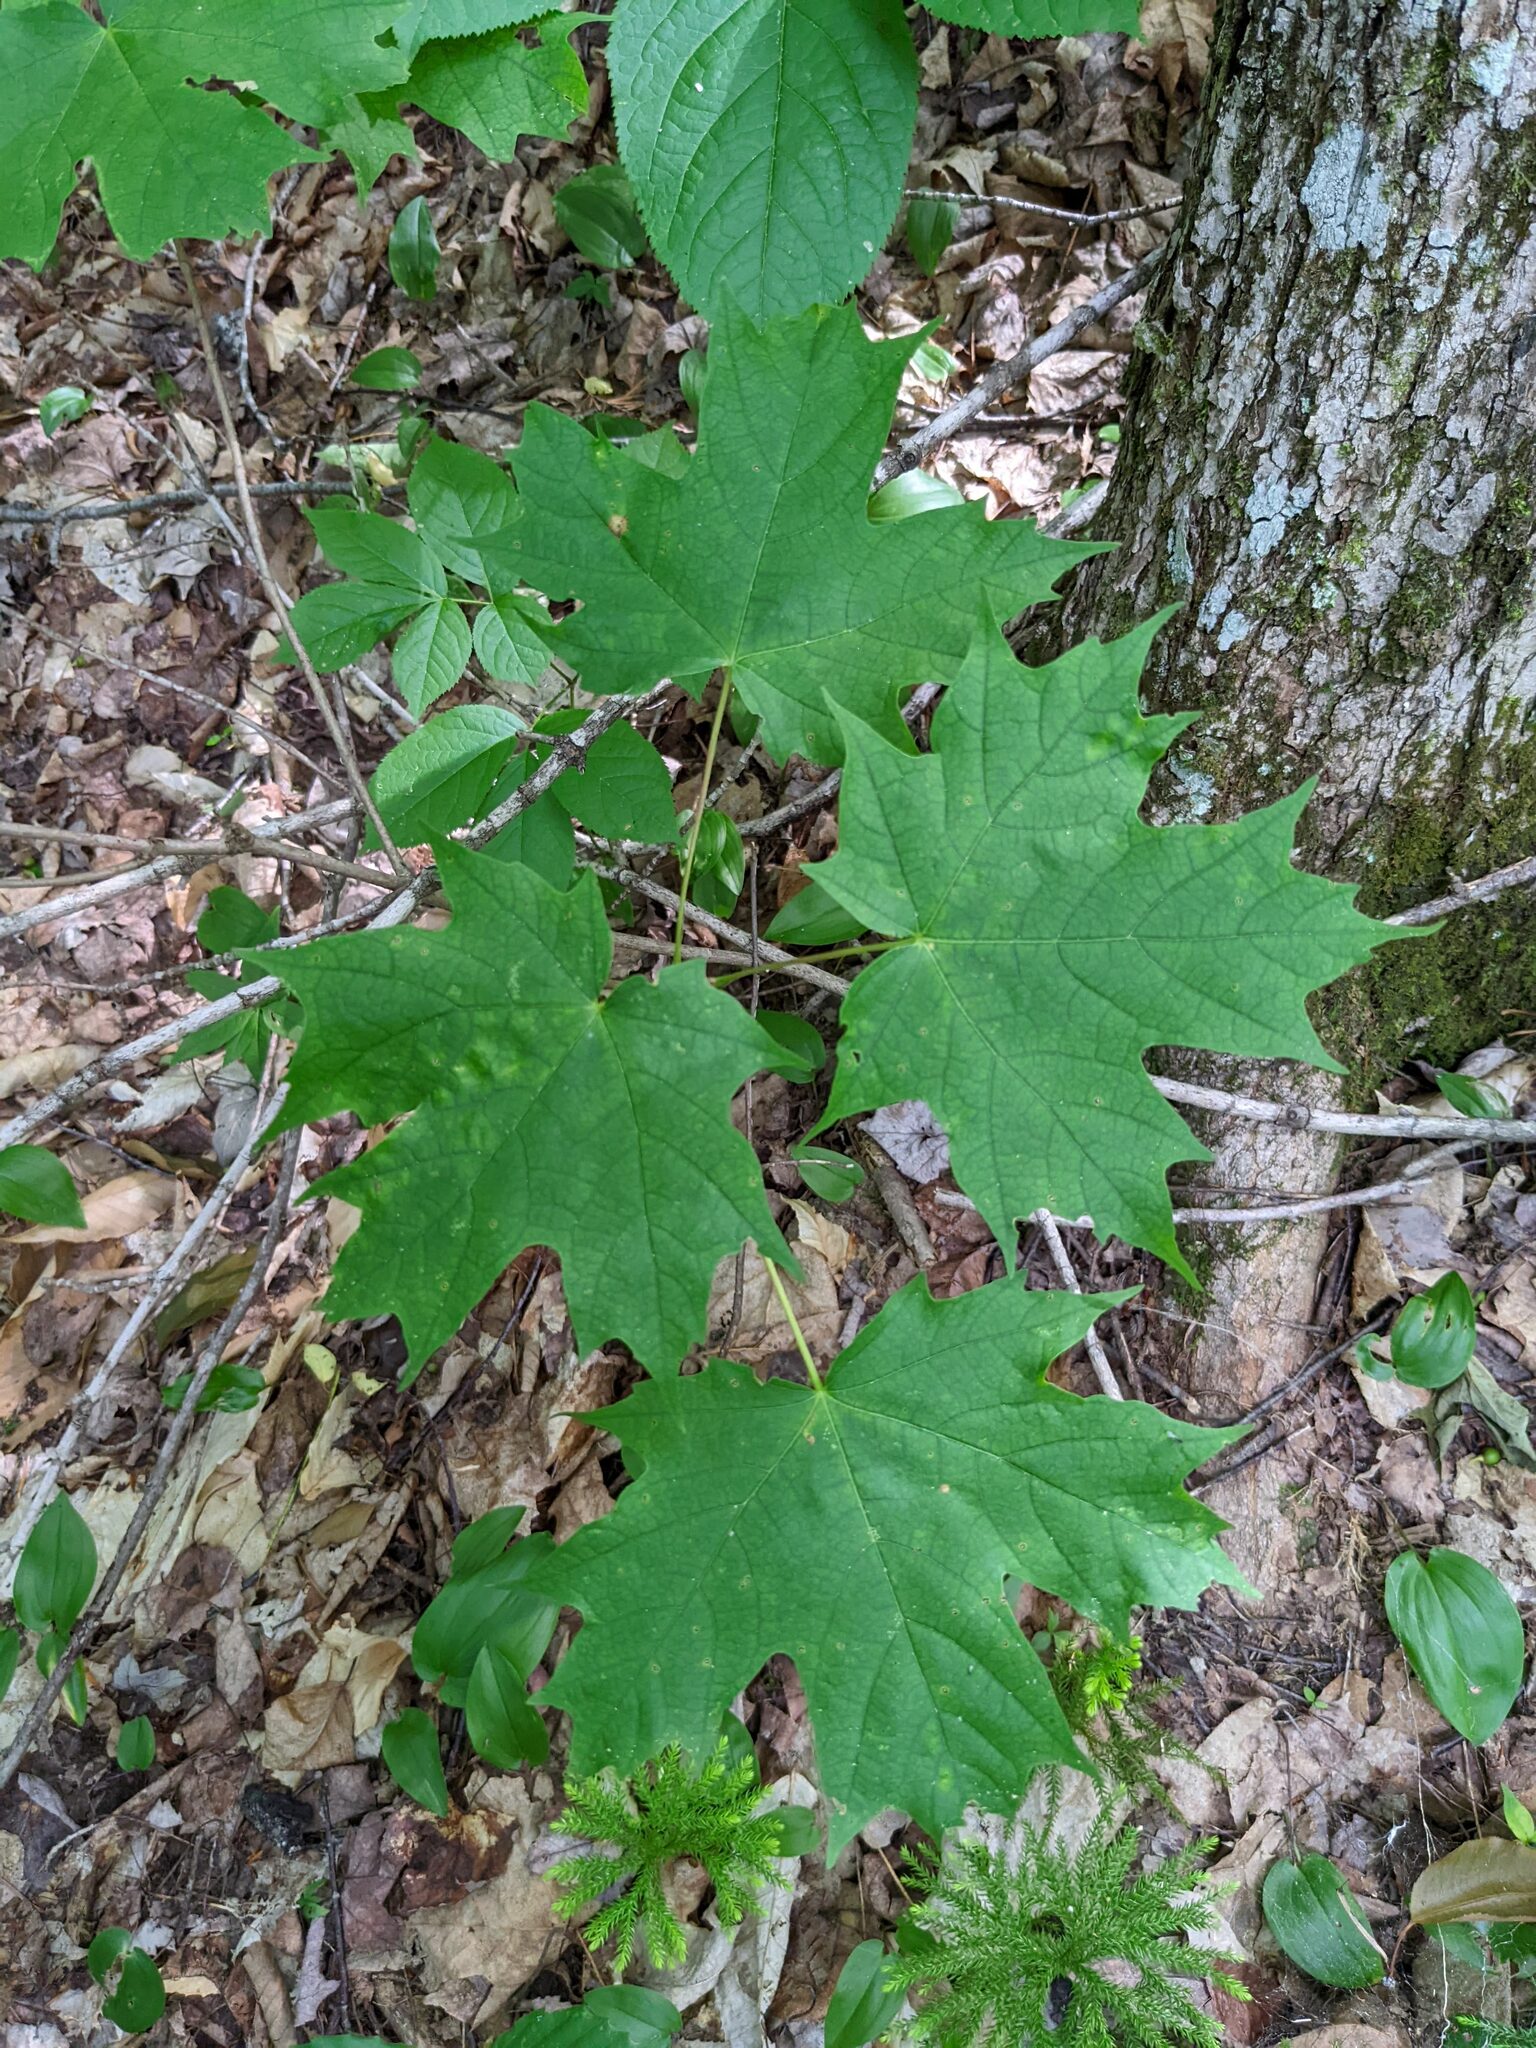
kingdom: Plantae
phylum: Tracheophyta
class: Magnoliopsida
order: Sapindales
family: Sapindaceae
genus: Acer
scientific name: Acer saccharum
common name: Sugar maple
